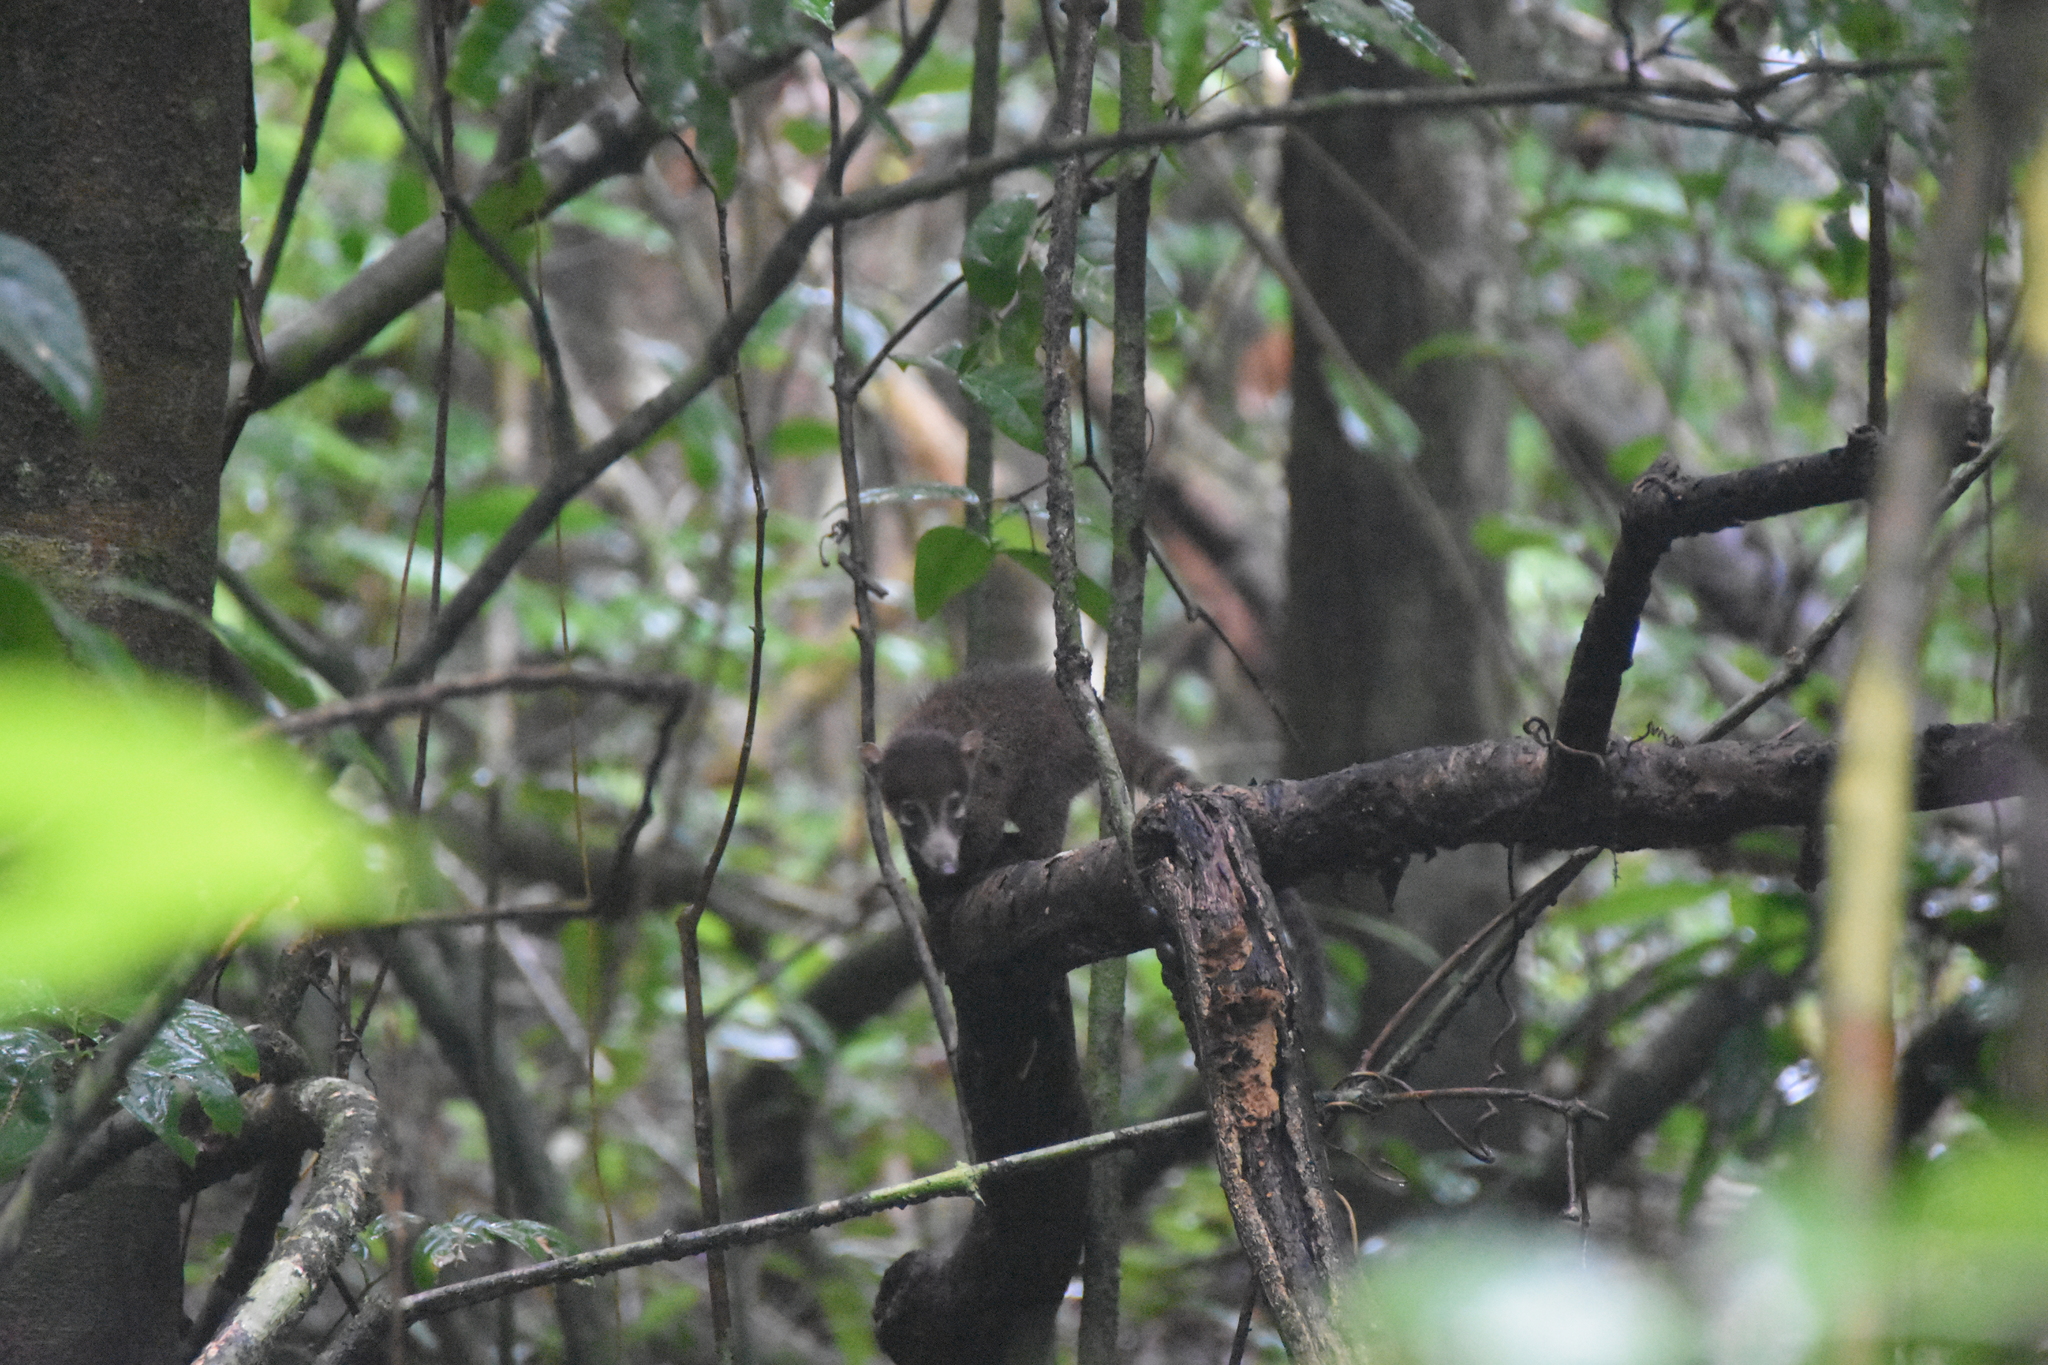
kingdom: Animalia
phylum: Chordata
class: Mammalia
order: Carnivora
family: Procyonidae
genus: Nasua
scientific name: Nasua narica
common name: White-nosed coati
